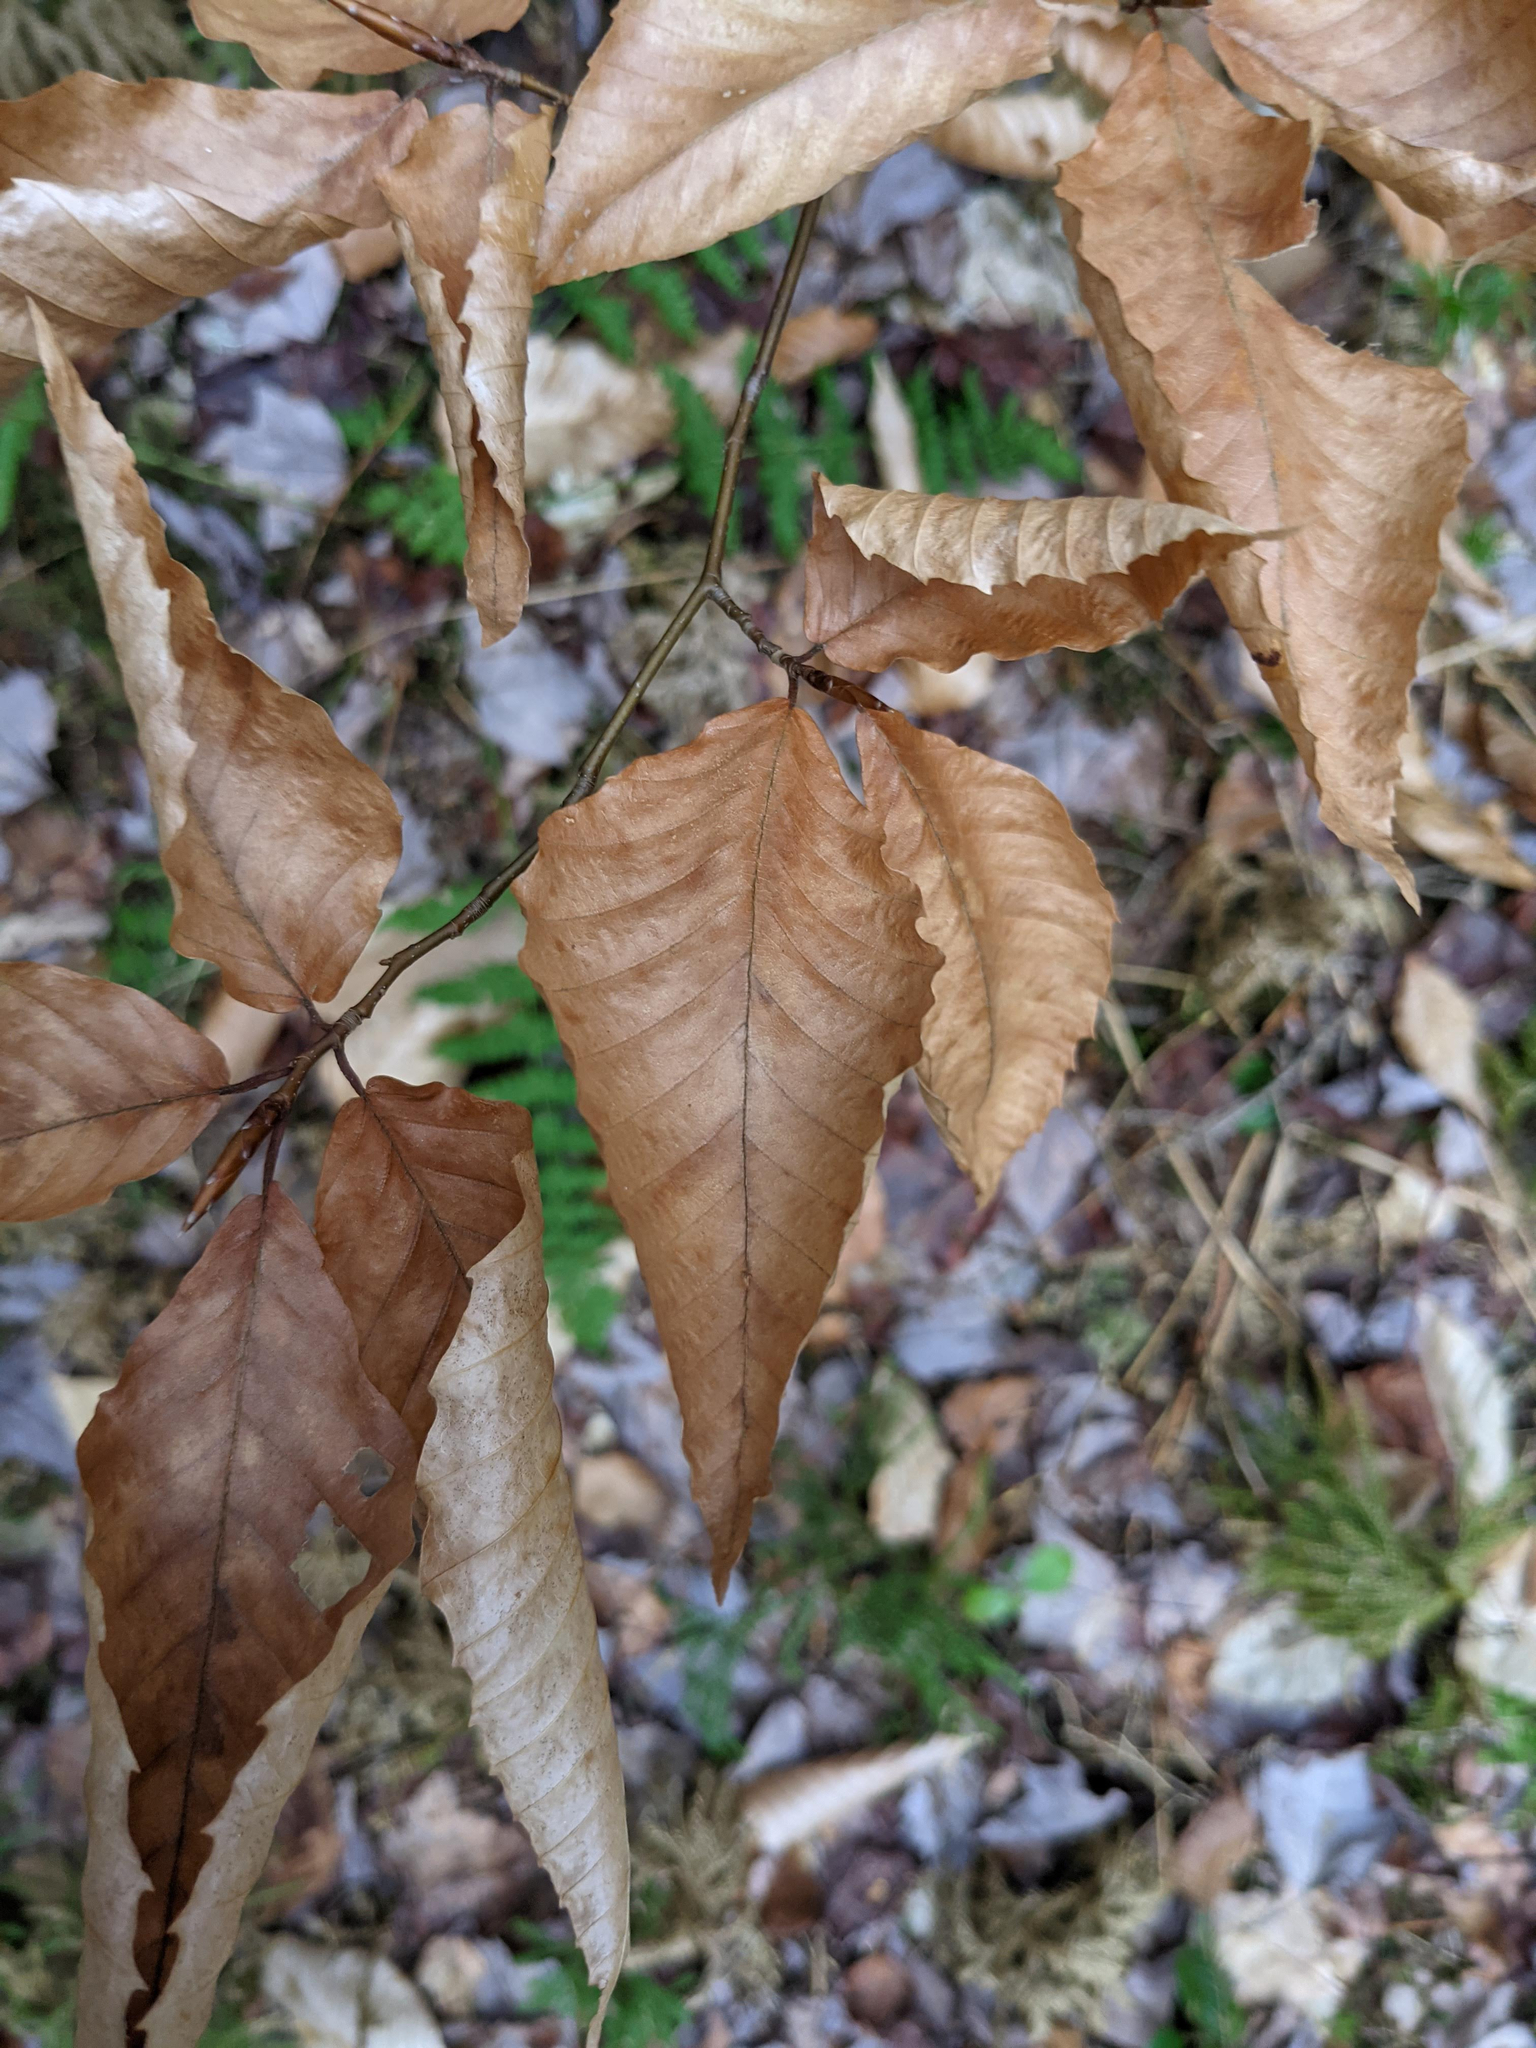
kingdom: Plantae
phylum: Tracheophyta
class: Magnoliopsida
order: Fagales
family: Fagaceae
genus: Fagus
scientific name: Fagus grandifolia
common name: American beech
